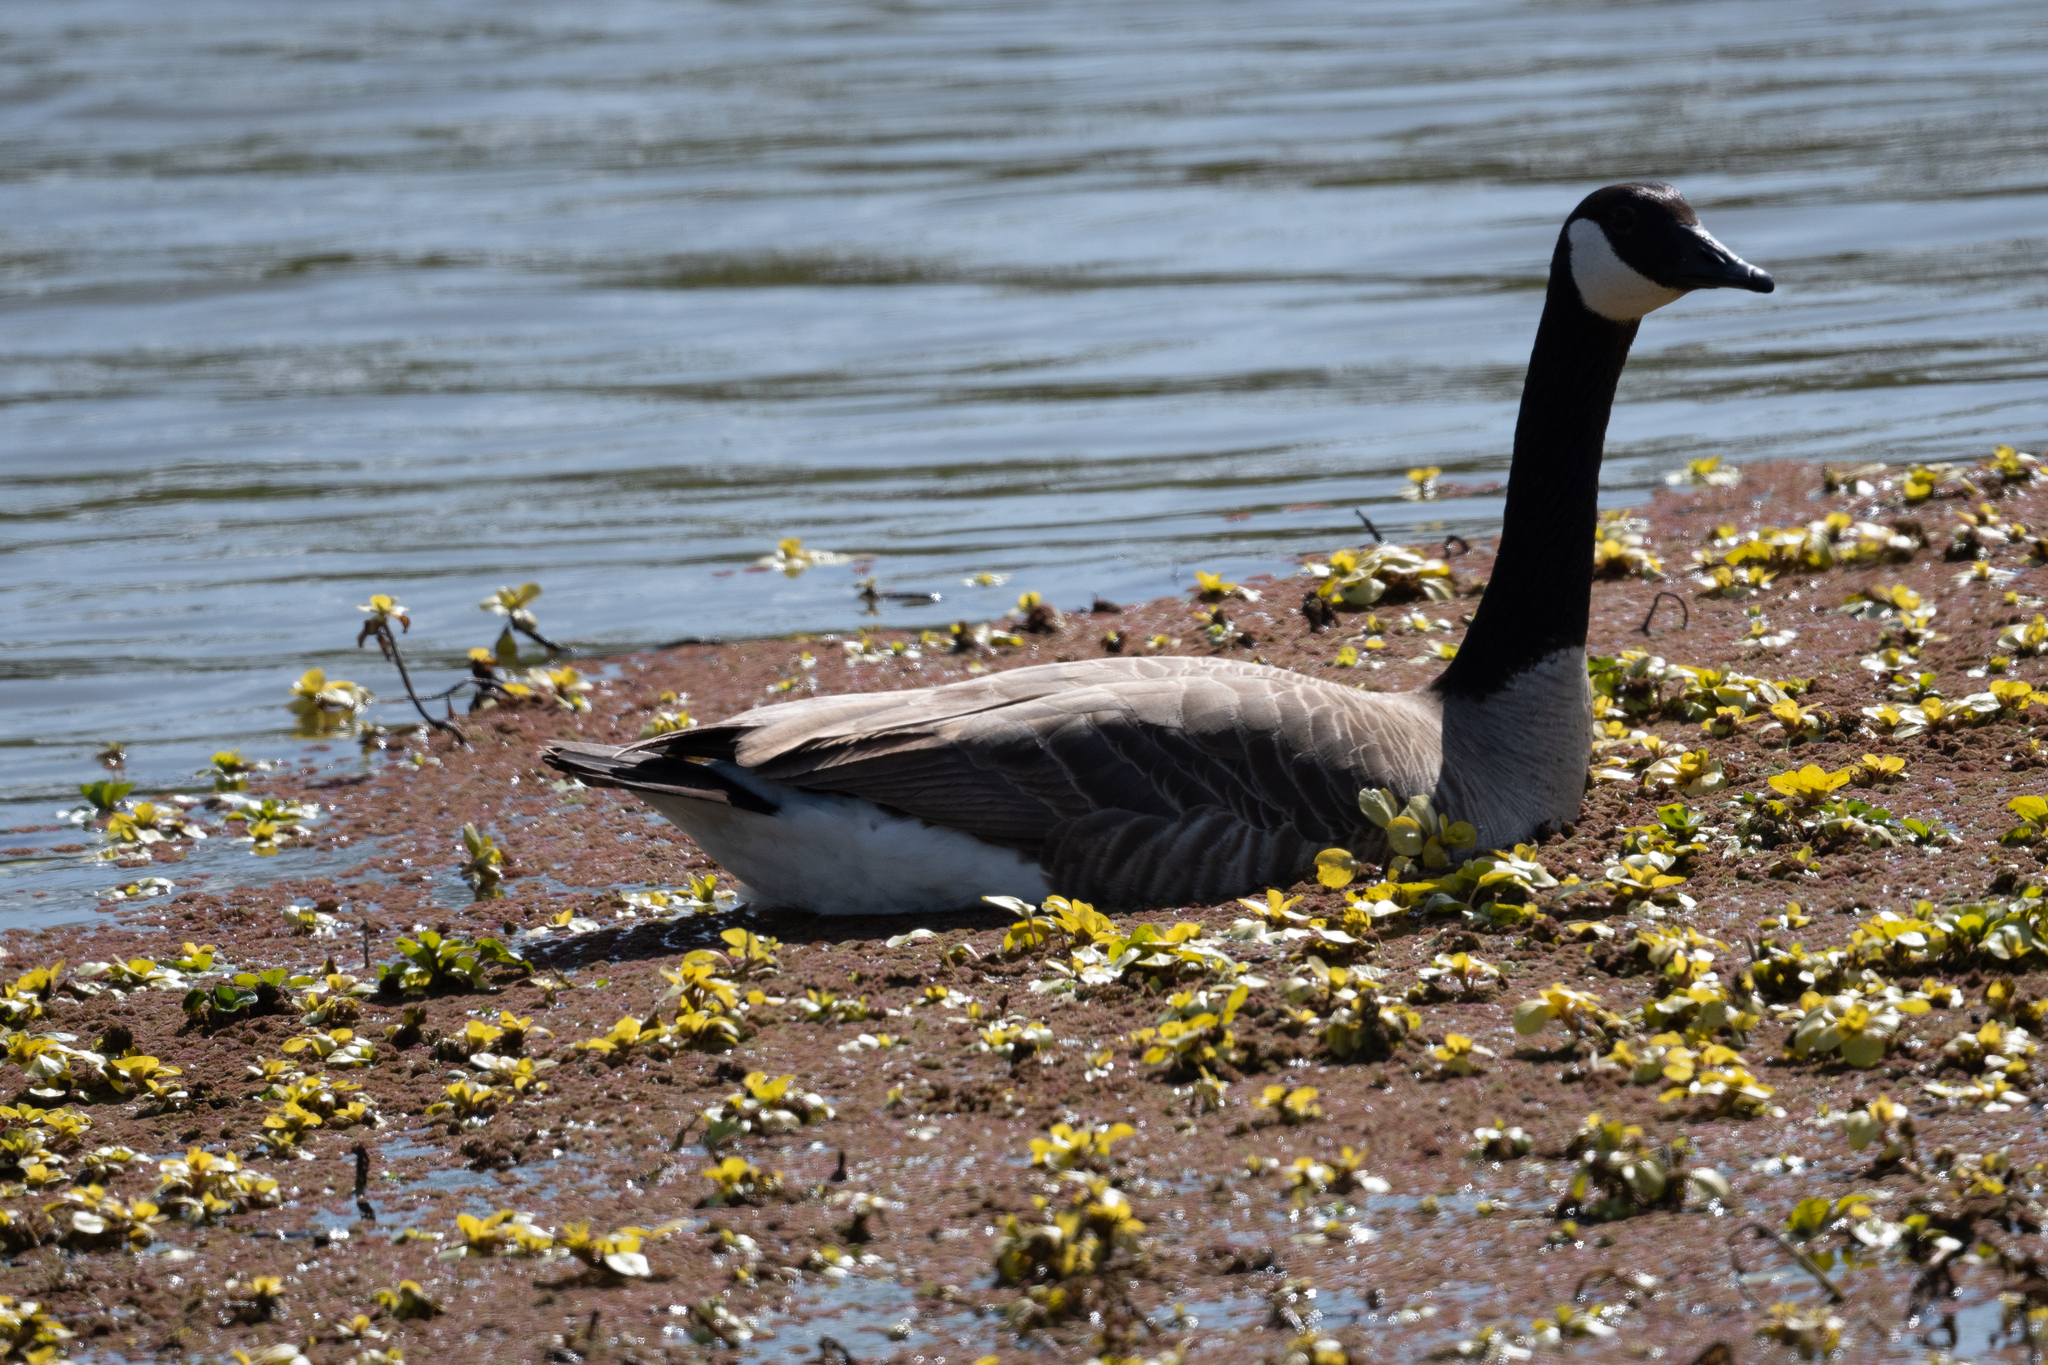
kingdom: Animalia
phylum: Chordata
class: Aves
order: Anseriformes
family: Anatidae
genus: Branta
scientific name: Branta canadensis
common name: Canada goose
